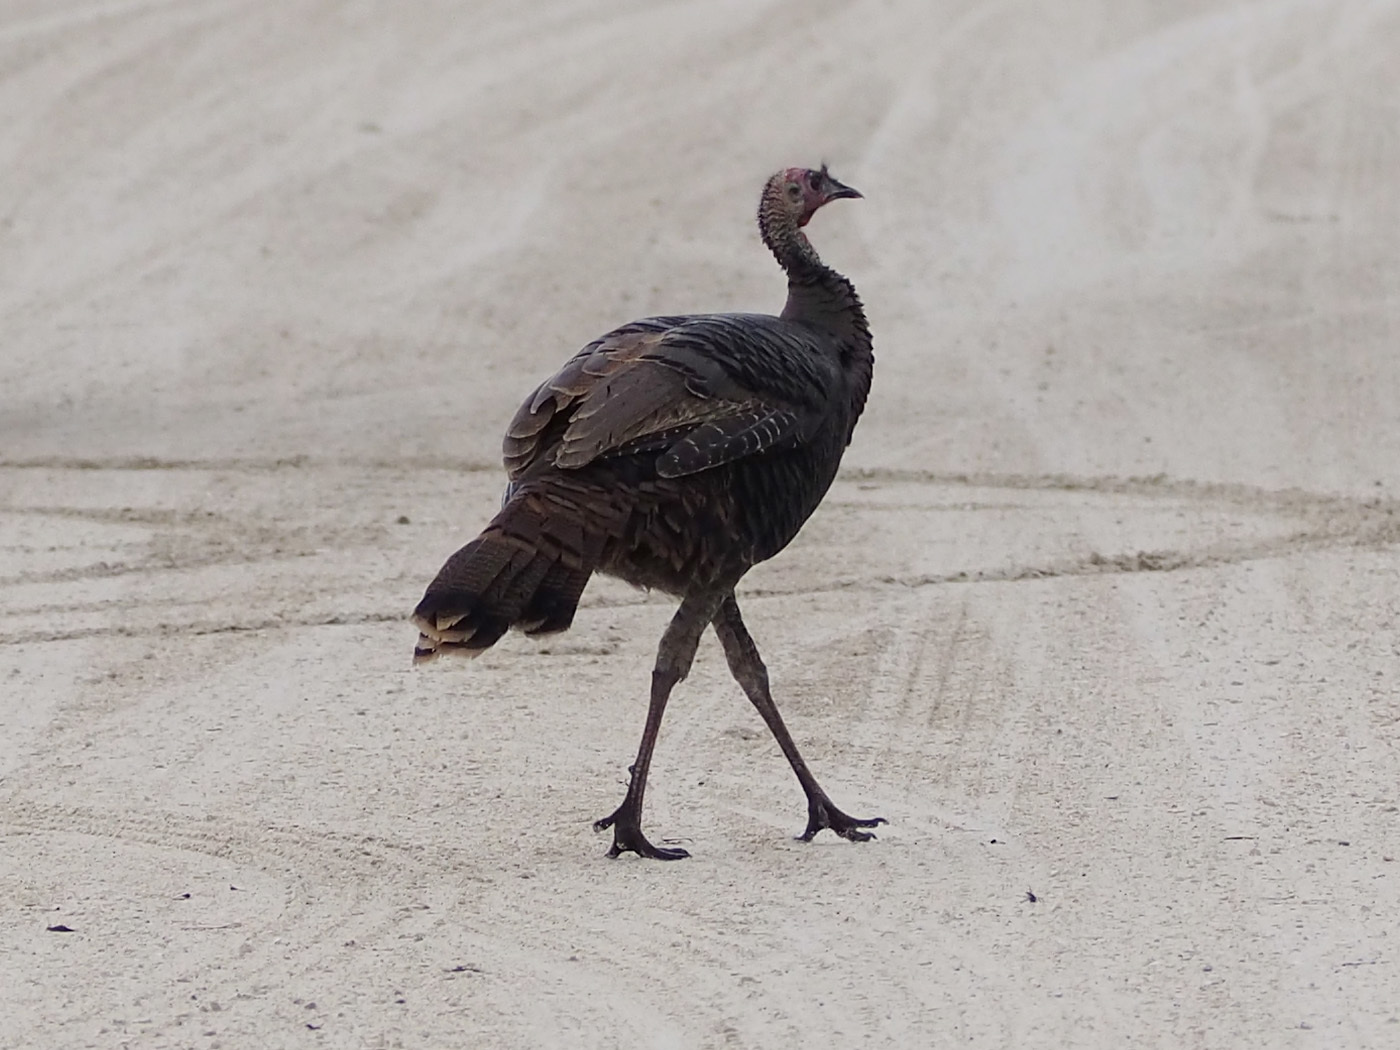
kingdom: Animalia
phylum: Chordata
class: Aves
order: Galliformes
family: Phasianidae
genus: Meleagris
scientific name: Meleagris gallopavo
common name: Wild turkey
